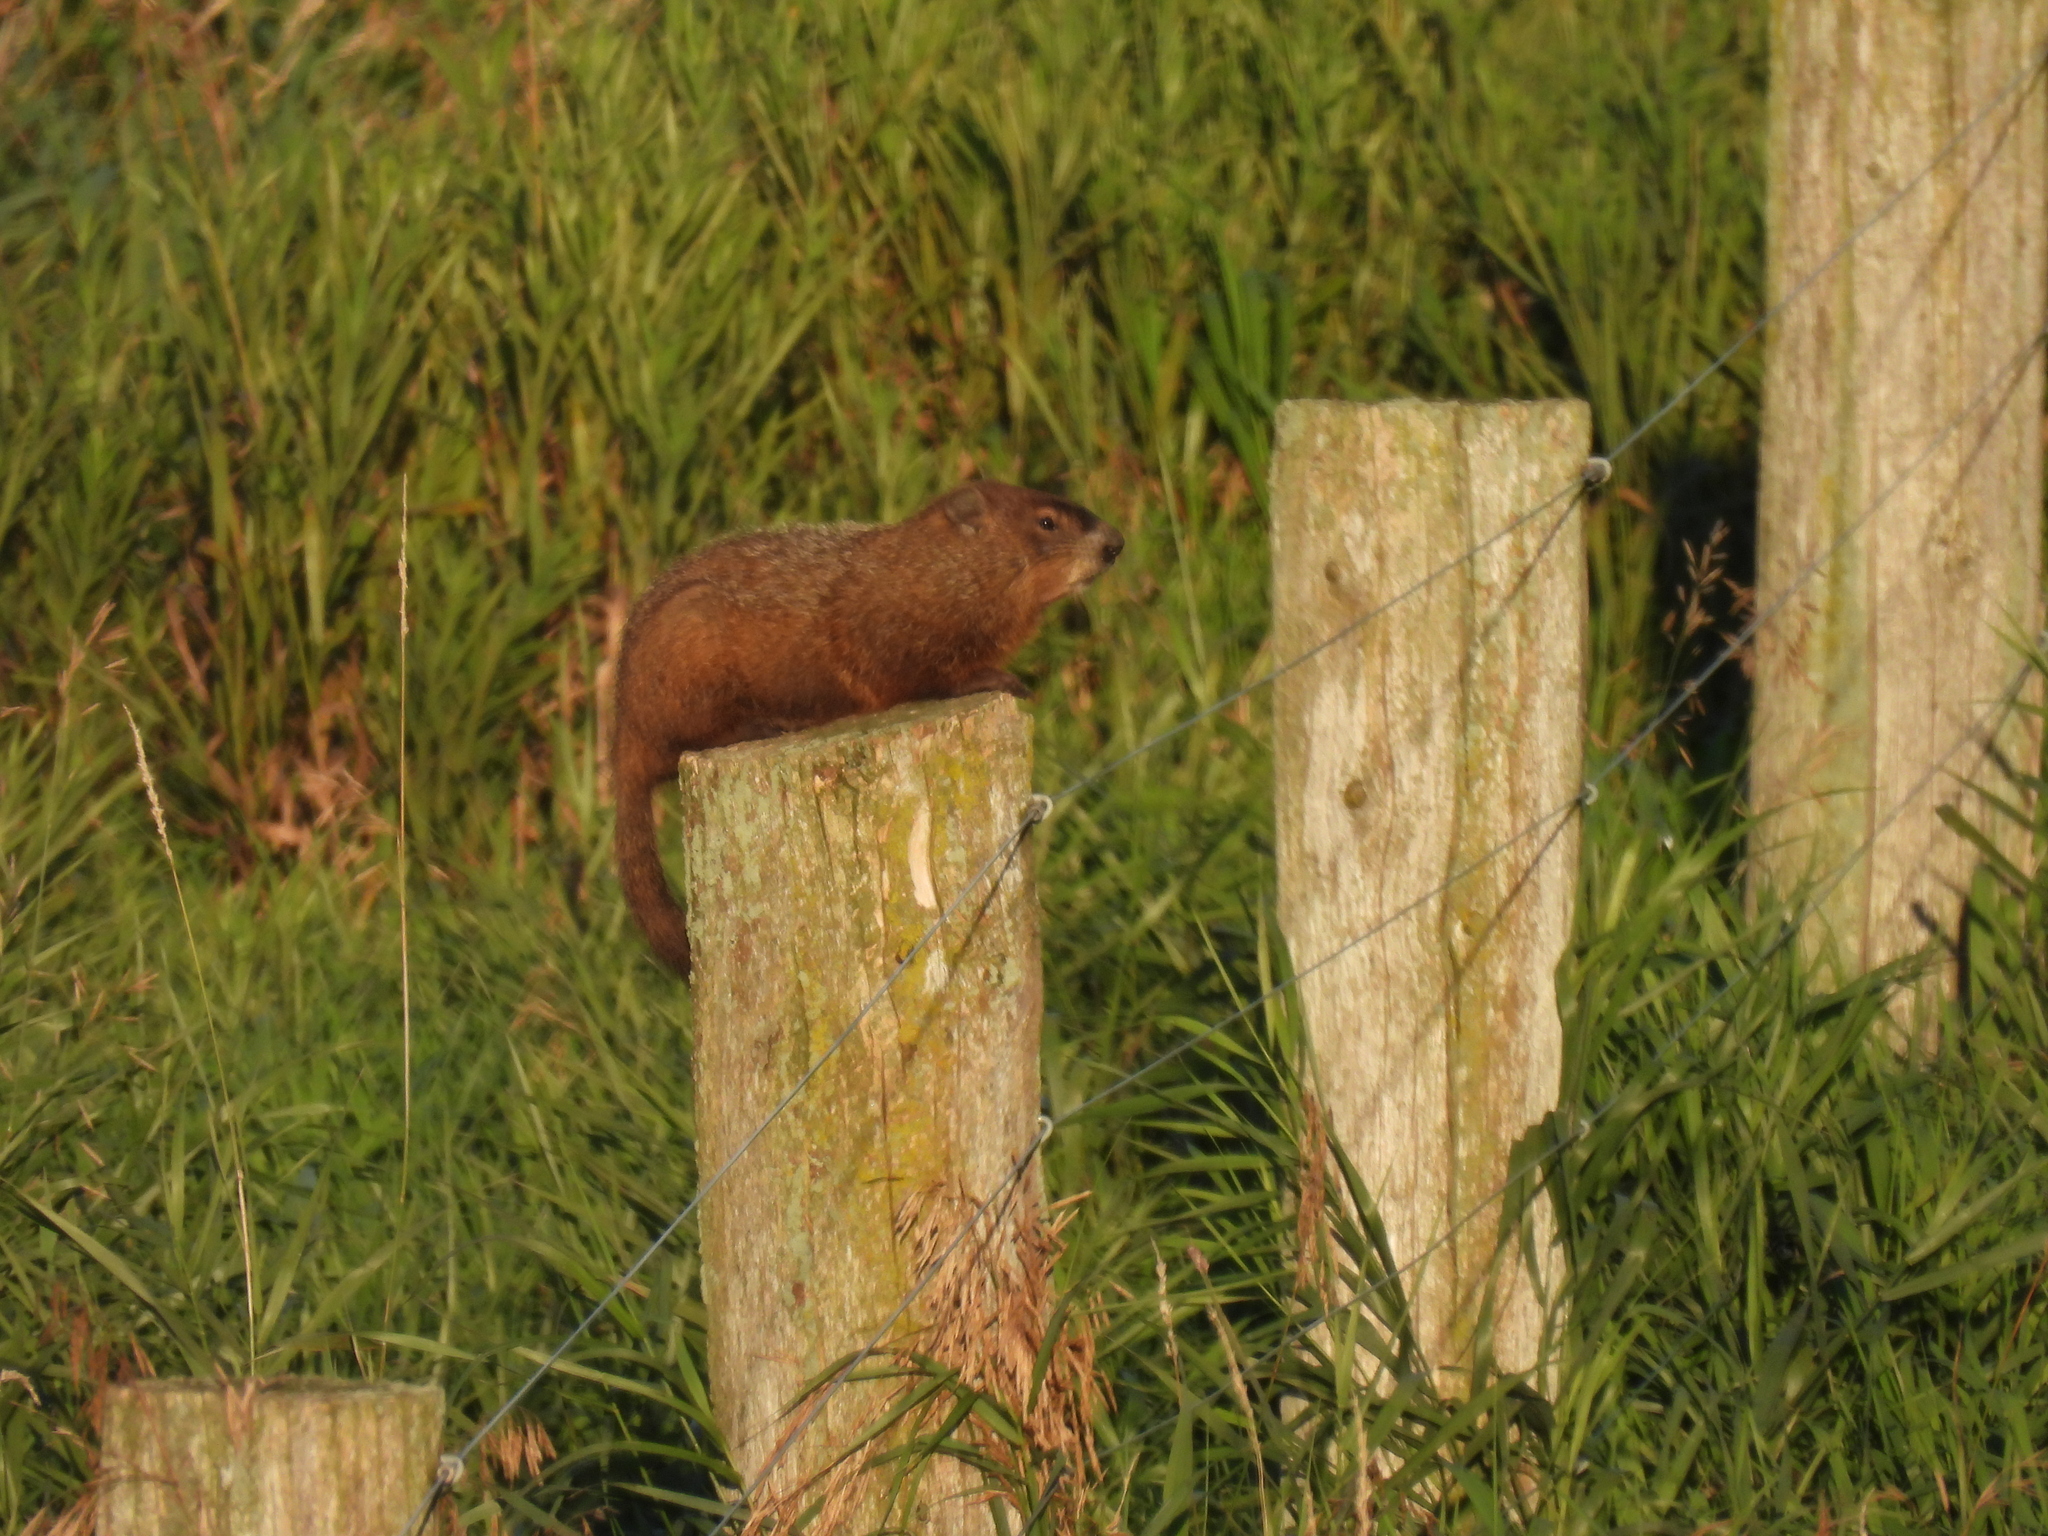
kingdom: Animalia
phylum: Chordata
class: Mammalia
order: Rodentia
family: Sciuridae
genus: Marmota
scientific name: Marmota monax
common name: Groundhog
